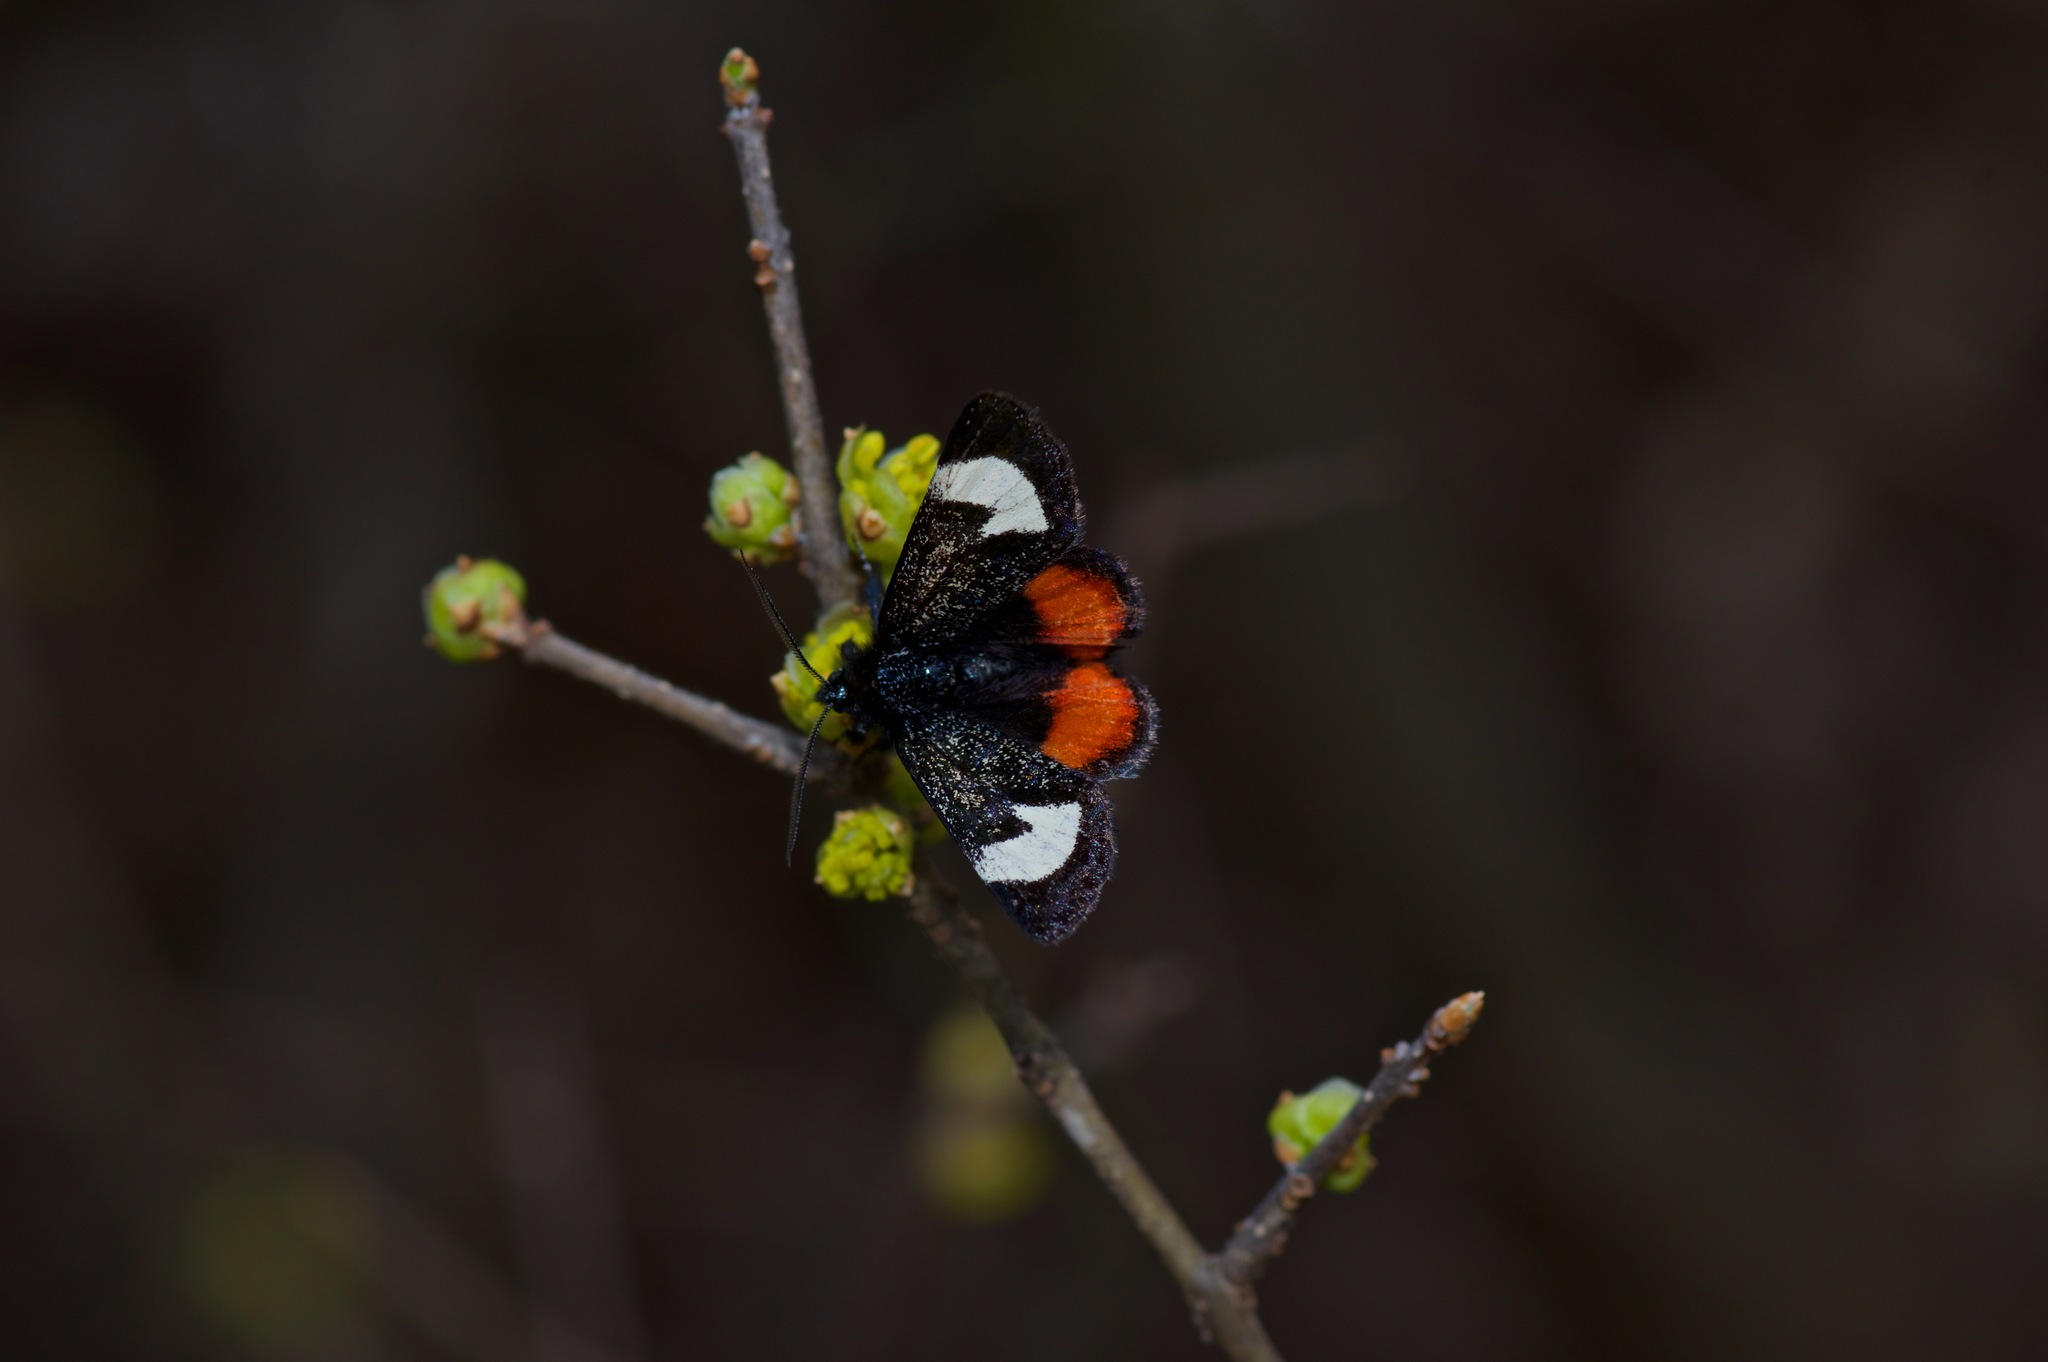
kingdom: Animalia
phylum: Arthropoda
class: Insecta
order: Lepidoptera
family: Noctuidae
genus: Psychomorpha
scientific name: Psychomorpha epimenis
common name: Grapevine epimenis moth
